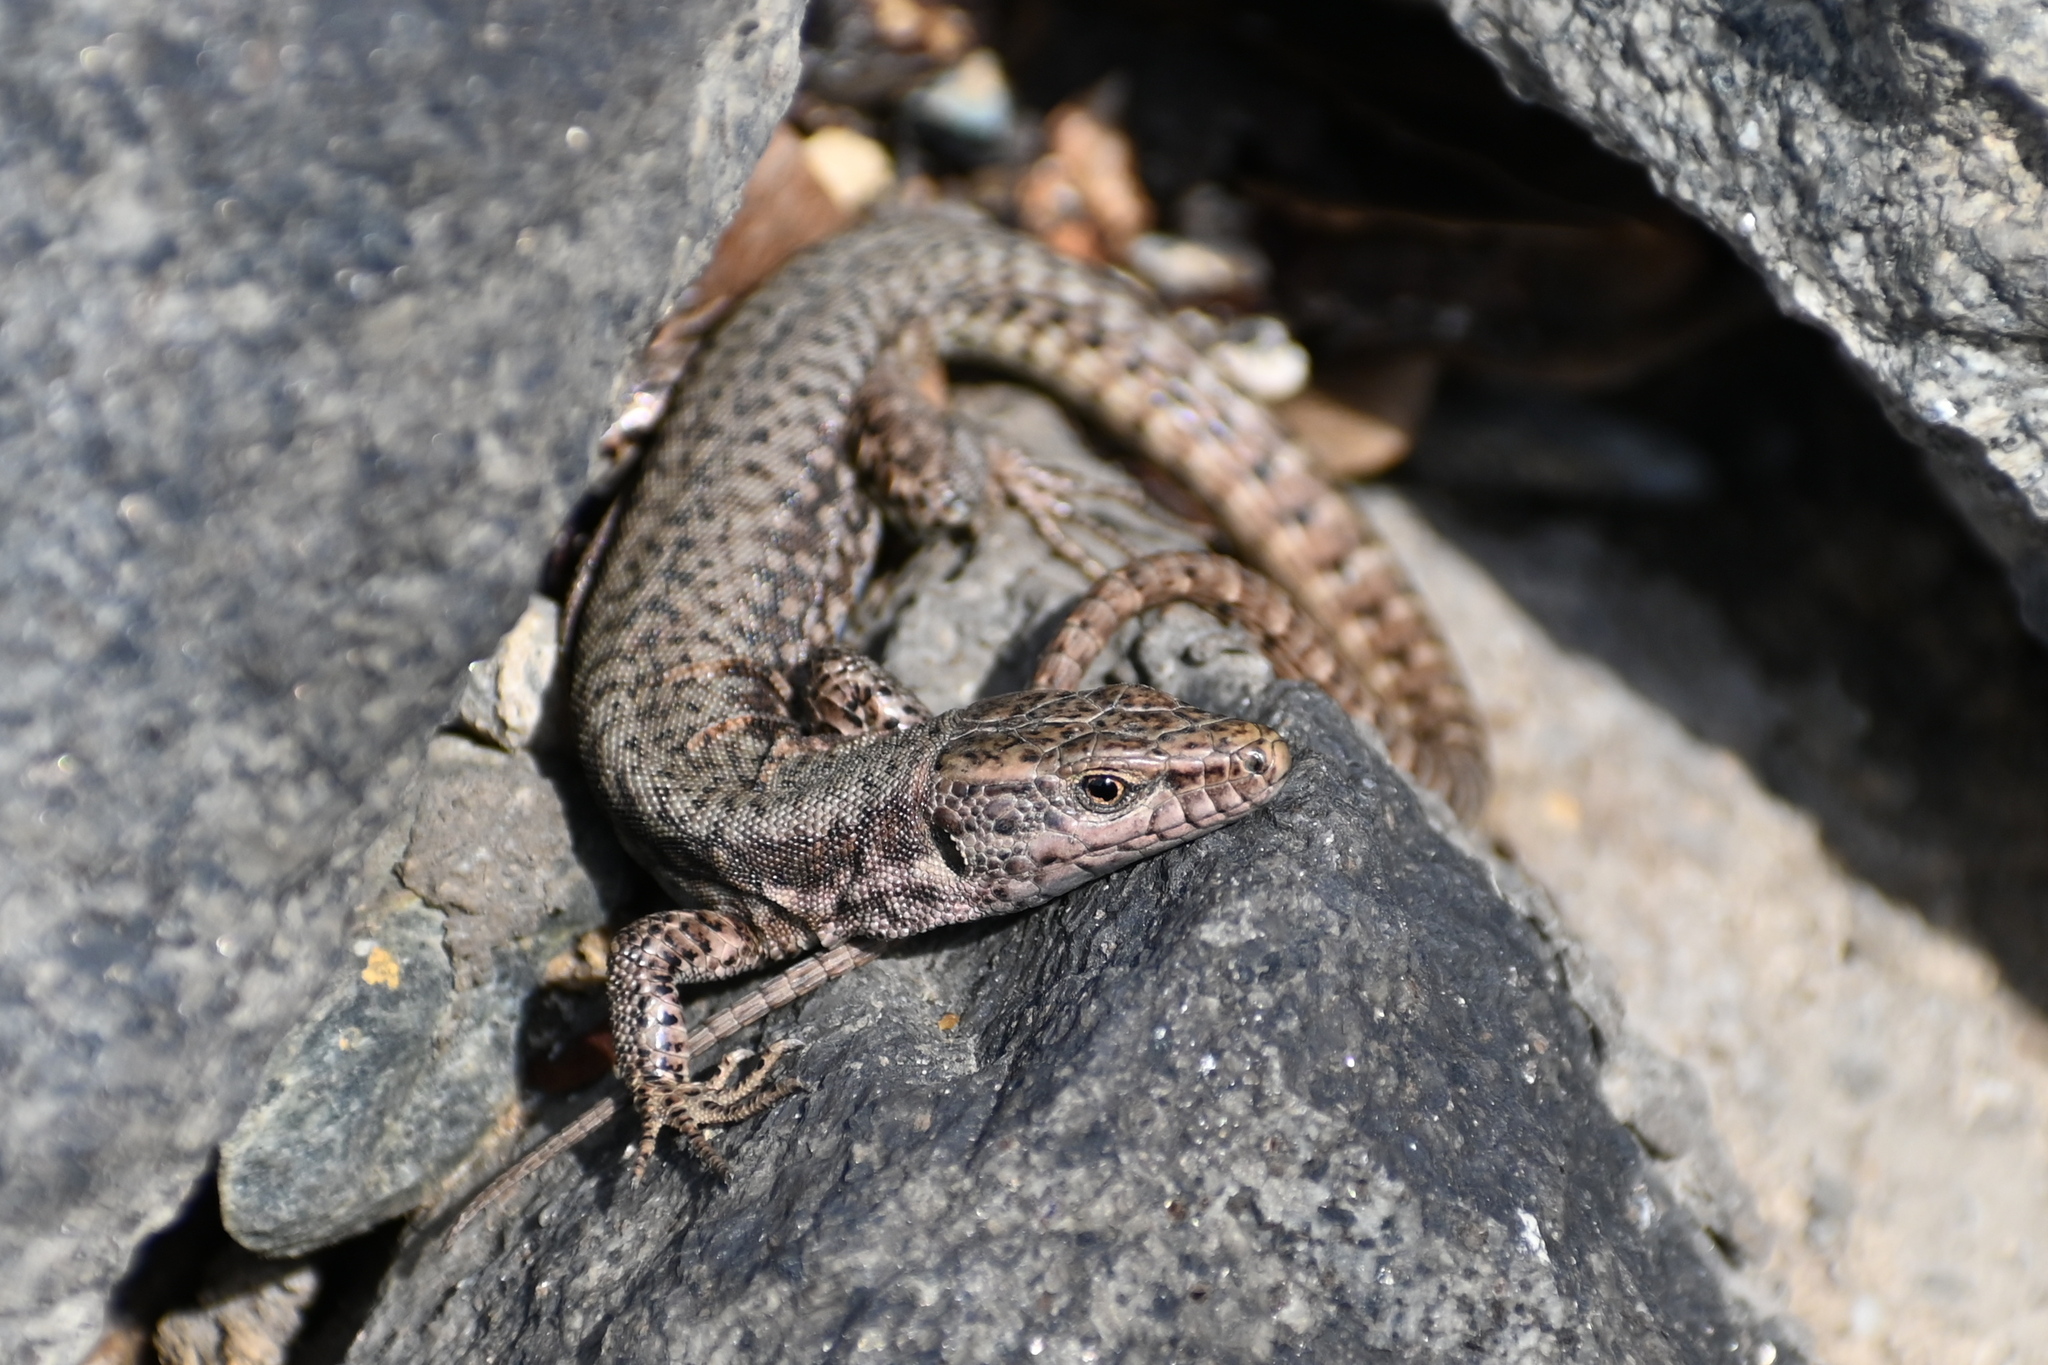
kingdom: Animalia
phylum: Chordata
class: Squamata
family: Lacertidae
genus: Podarcis
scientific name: Podarcis muralis
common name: Common wall lizard
